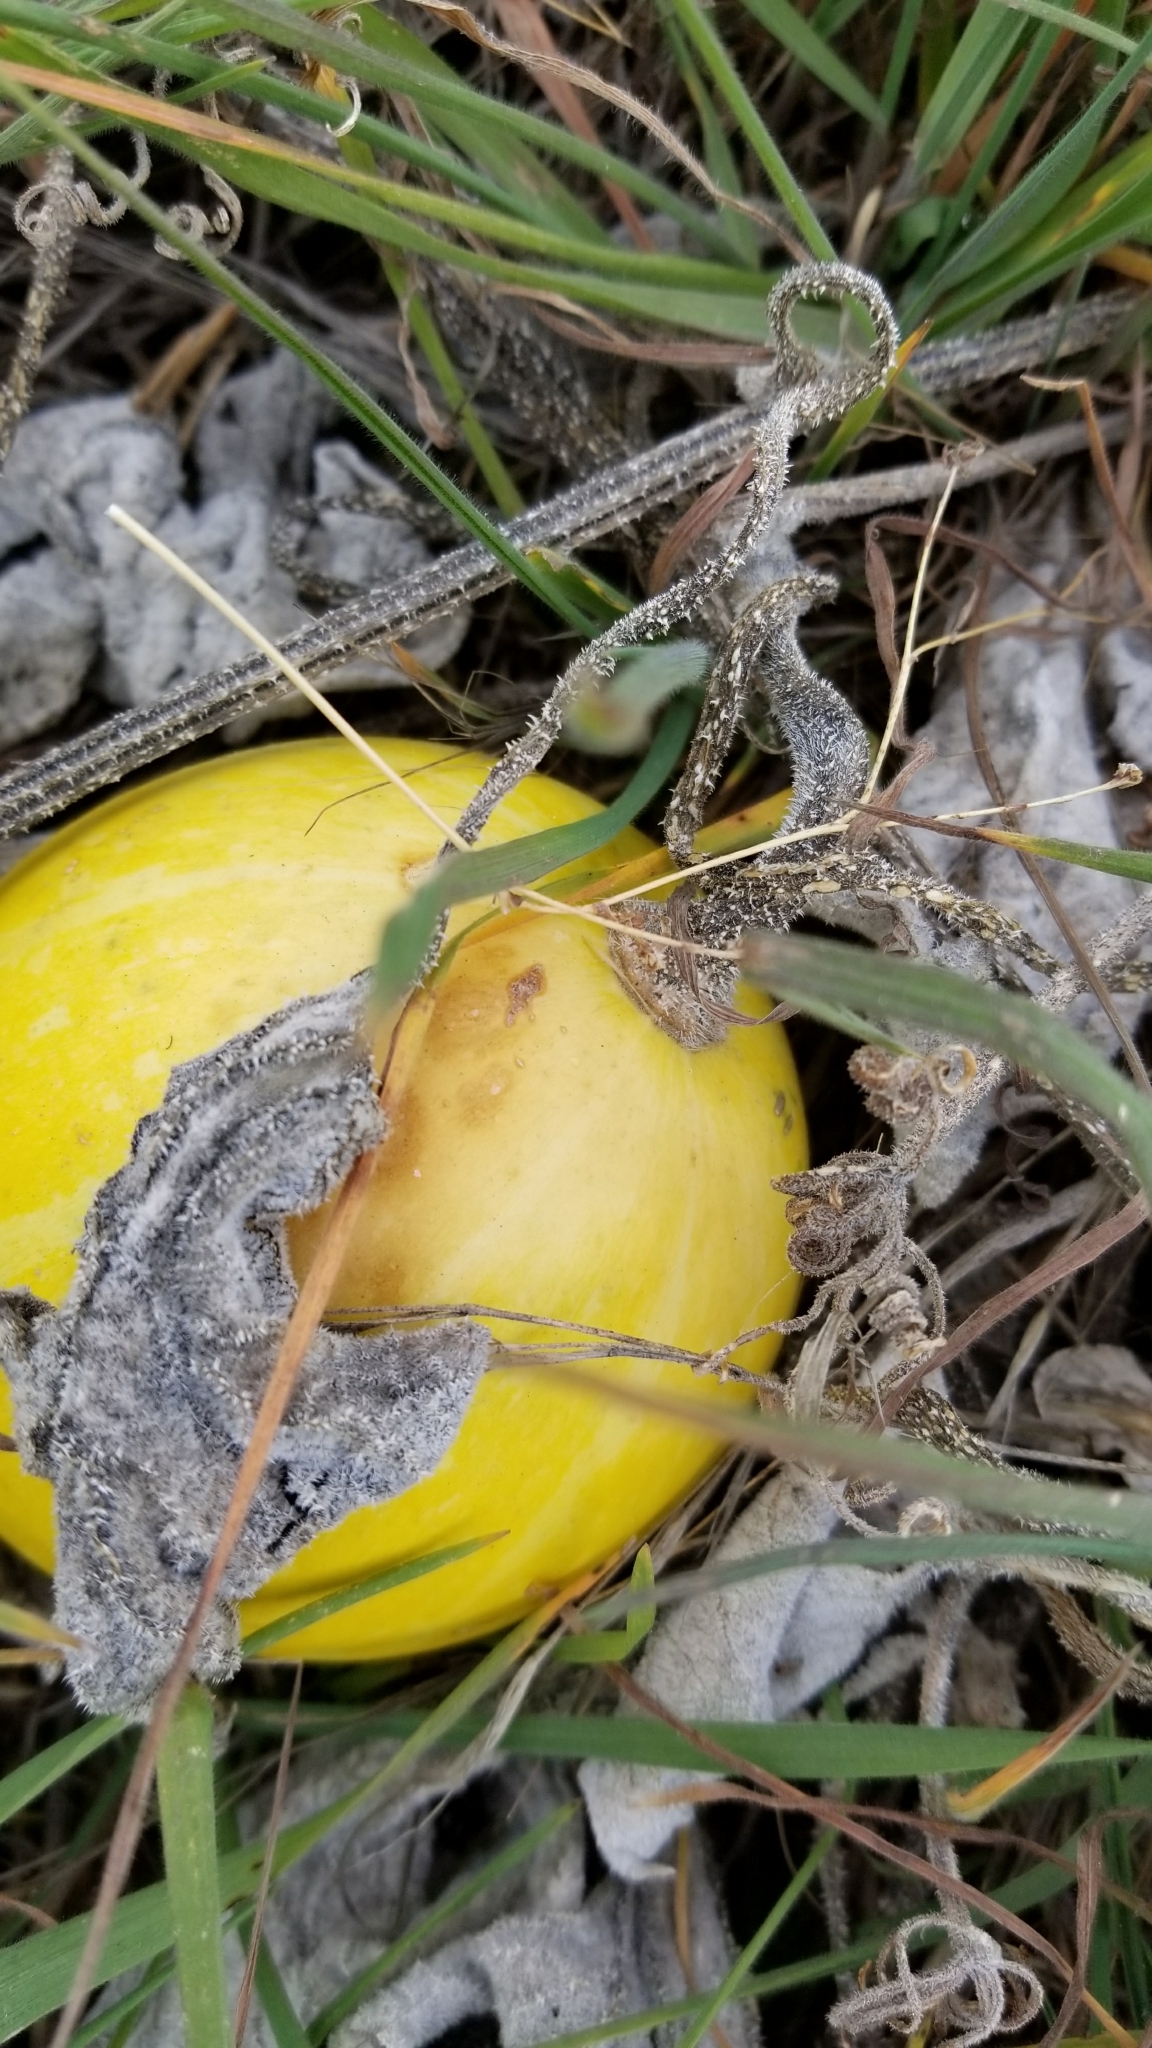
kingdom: Plantae
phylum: Tracheophyta
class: Magnoliopsida
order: Cucurbitales
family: Cucurbitaceae
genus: Cucurbita
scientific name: Cucurbita palmata
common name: Coyote-melon
